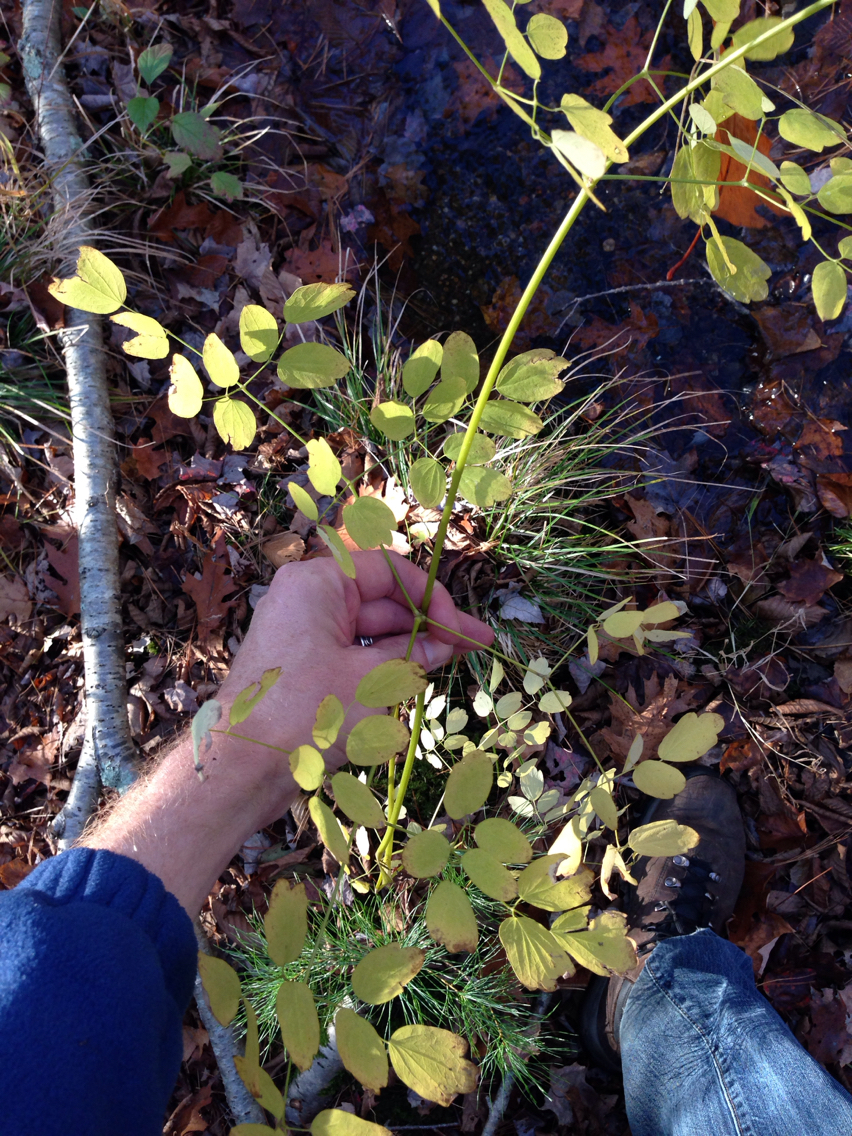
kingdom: Plantae
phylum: Tracheophyta
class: Magnoliopsida
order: Ranunculales
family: Ranunculaceae
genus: Thalictrum
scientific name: Thalictrum pubescens
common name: King-of-the-meadow
